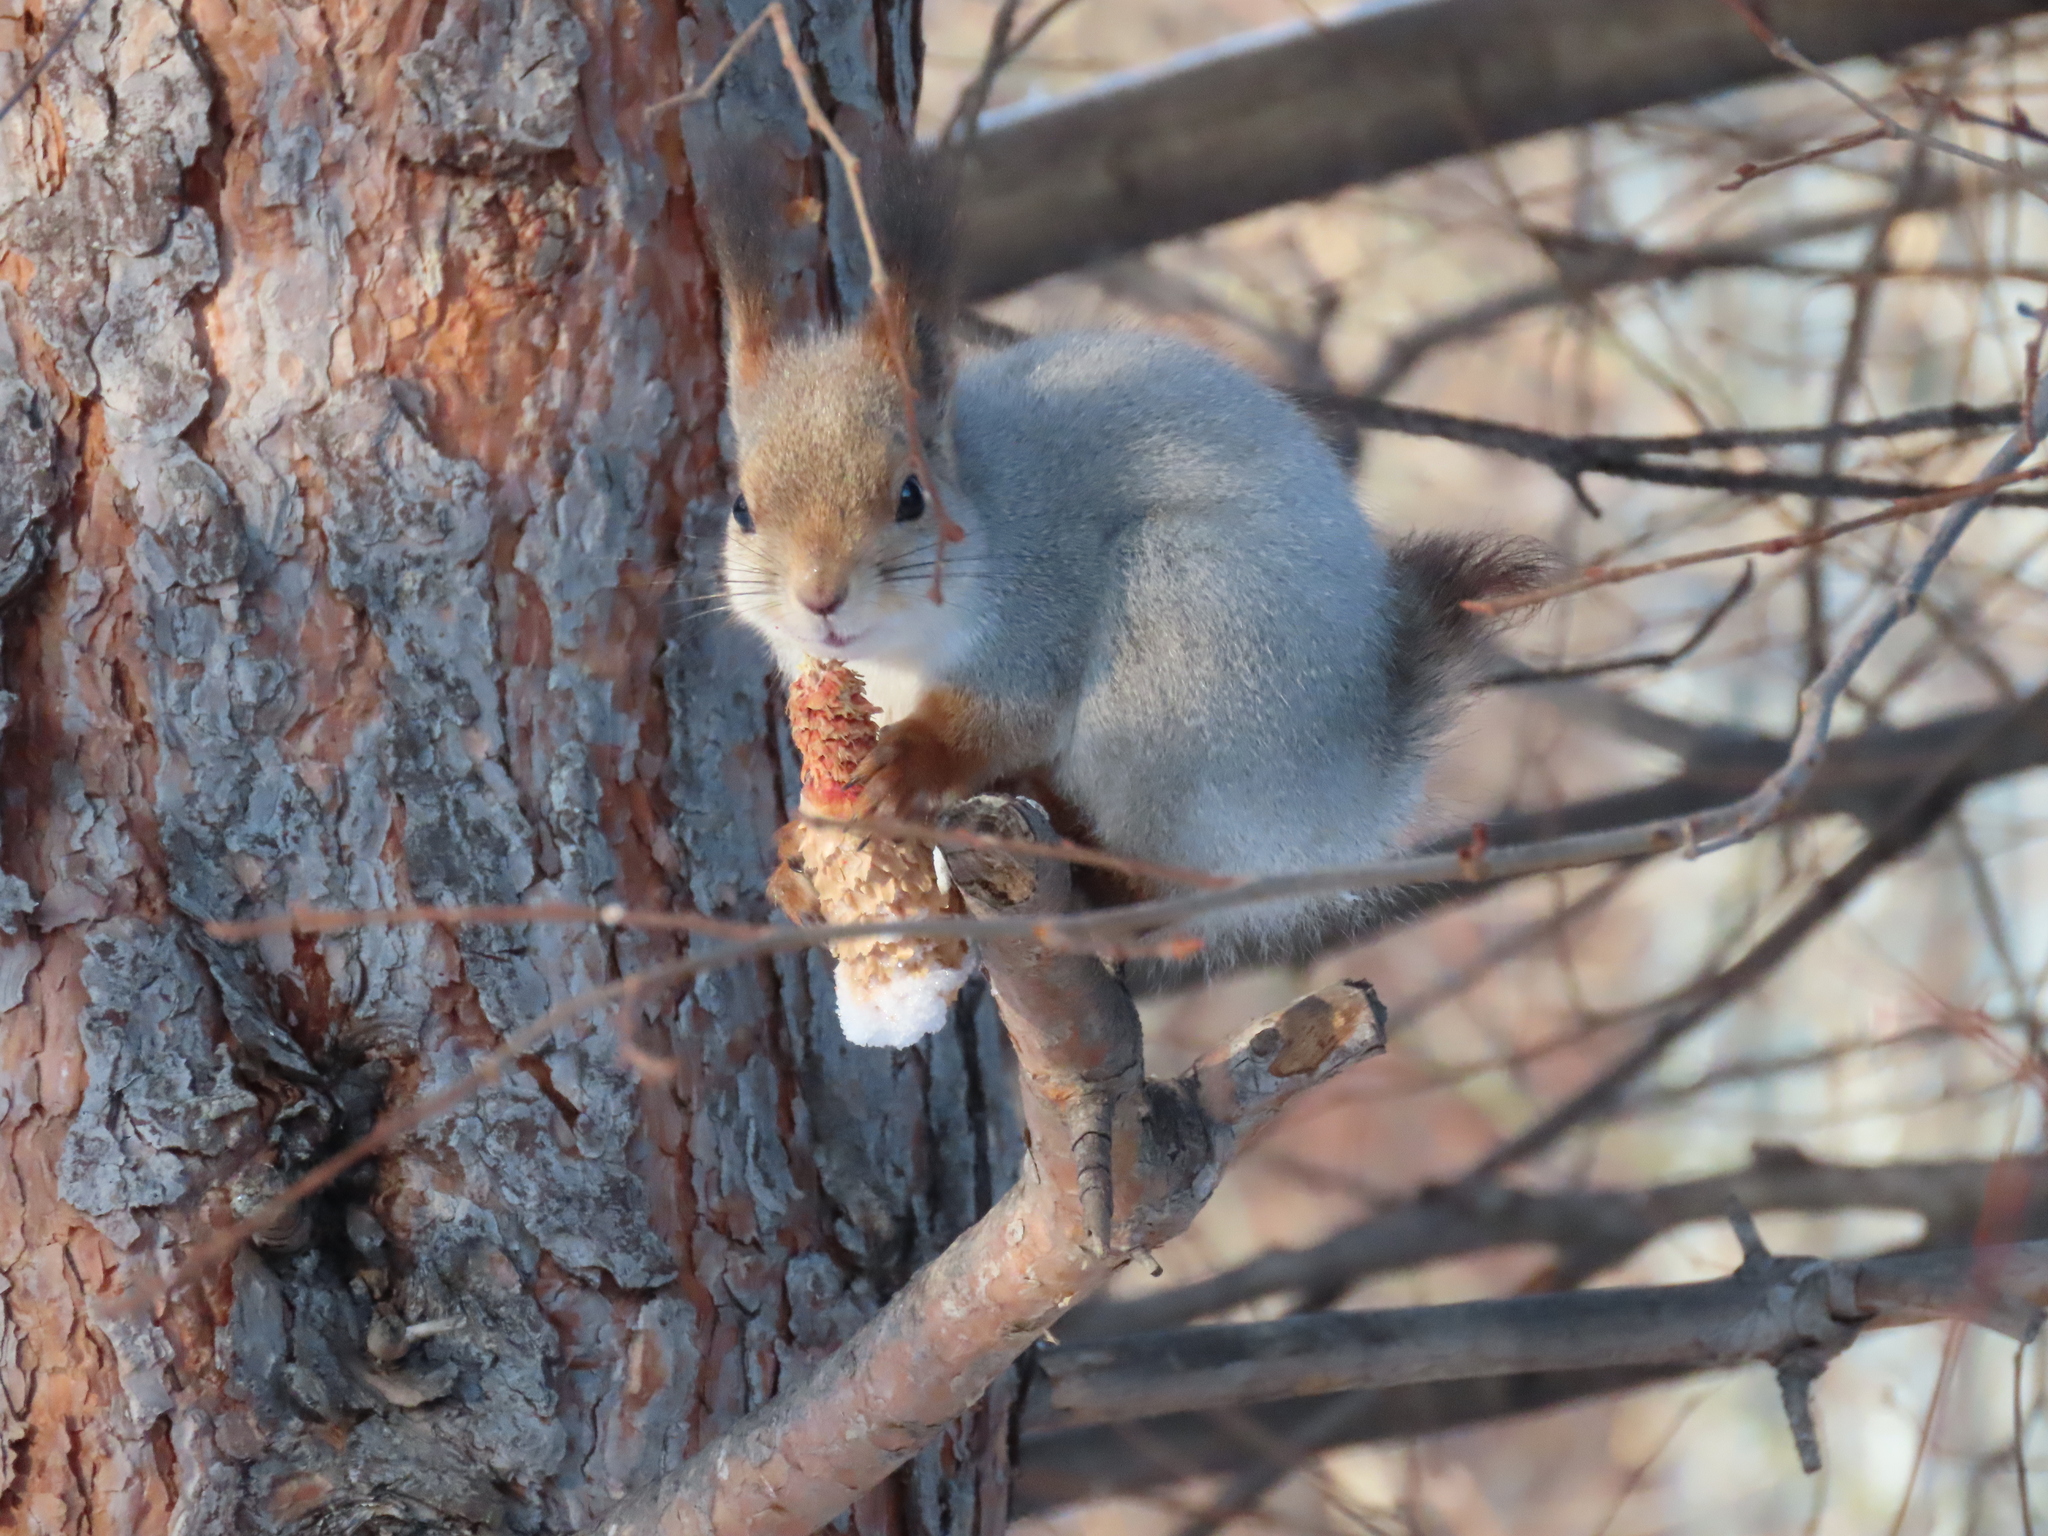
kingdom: Animalia
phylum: Chordata
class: Mammalia
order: Rodentia
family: Sciuridae
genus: Sciurus
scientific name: Sciurus vulgaris
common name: Eurasian red squirrel
